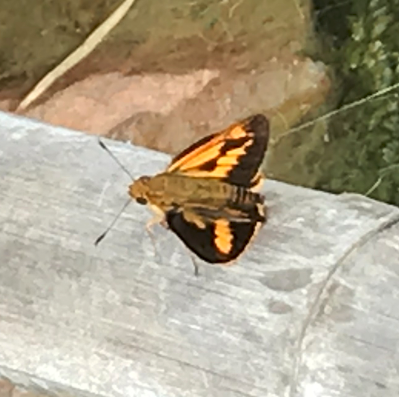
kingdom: Animalia
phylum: Arthropoda
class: Insecta
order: Lepidoptera
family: Hesperiidae
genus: Cephrenes
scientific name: Cephrenes augiades
